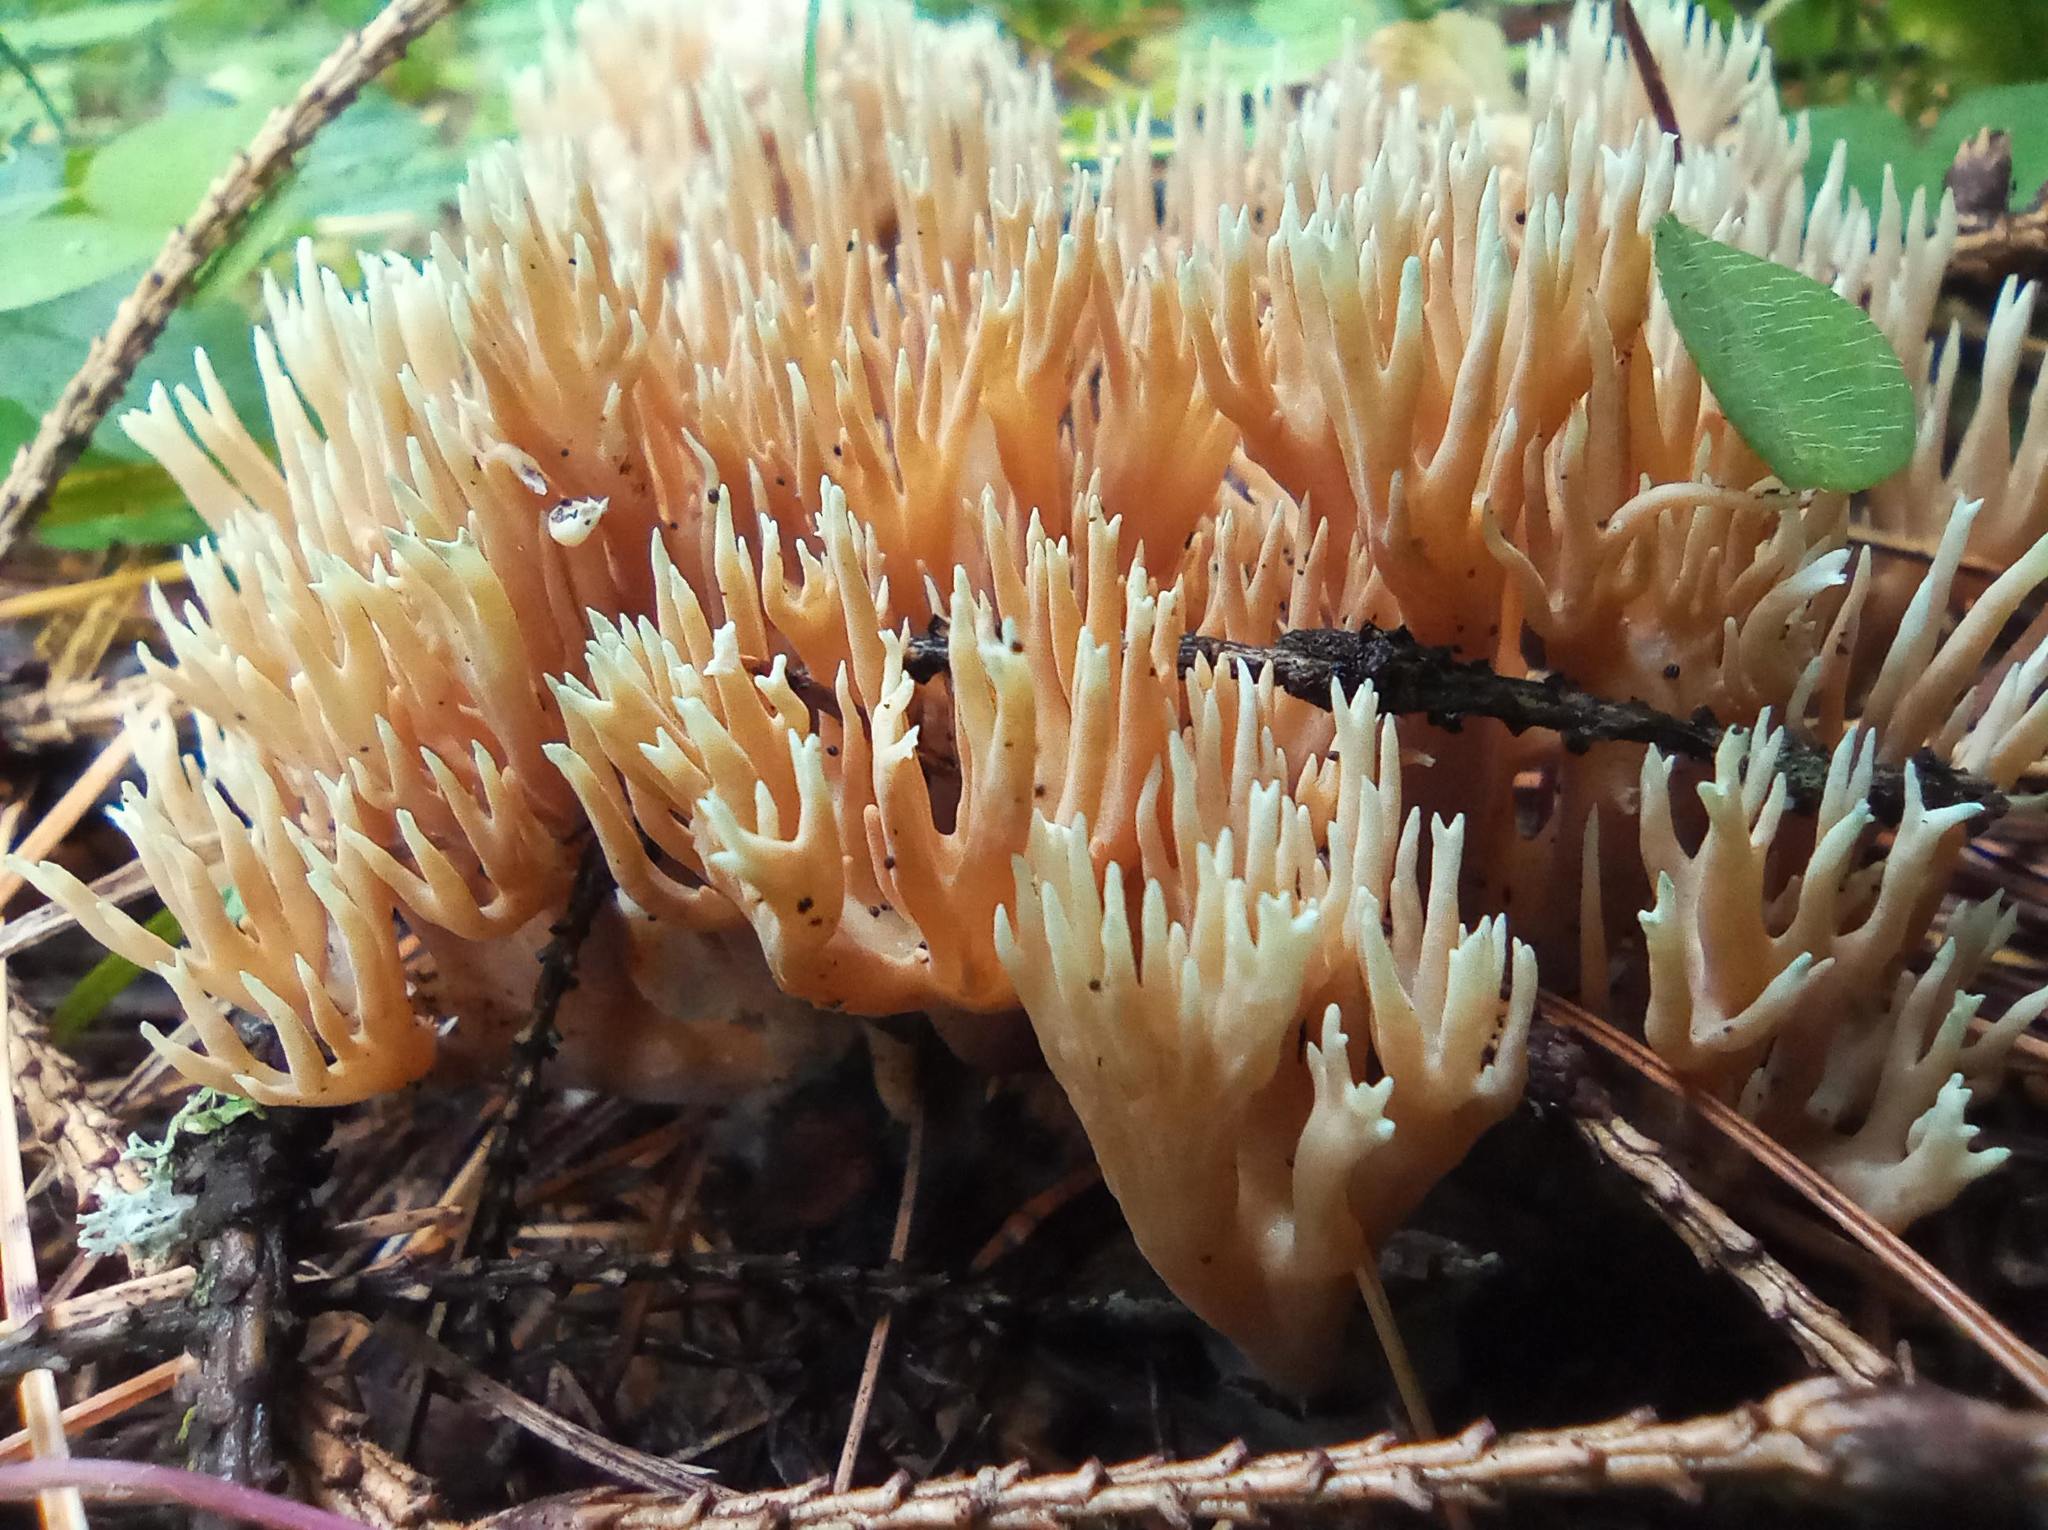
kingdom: Fungi
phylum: Basidiomycota
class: Agaricomycetes
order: Gomphales
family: Gomphaceae
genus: Ramaria
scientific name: Ramaria tsugina
